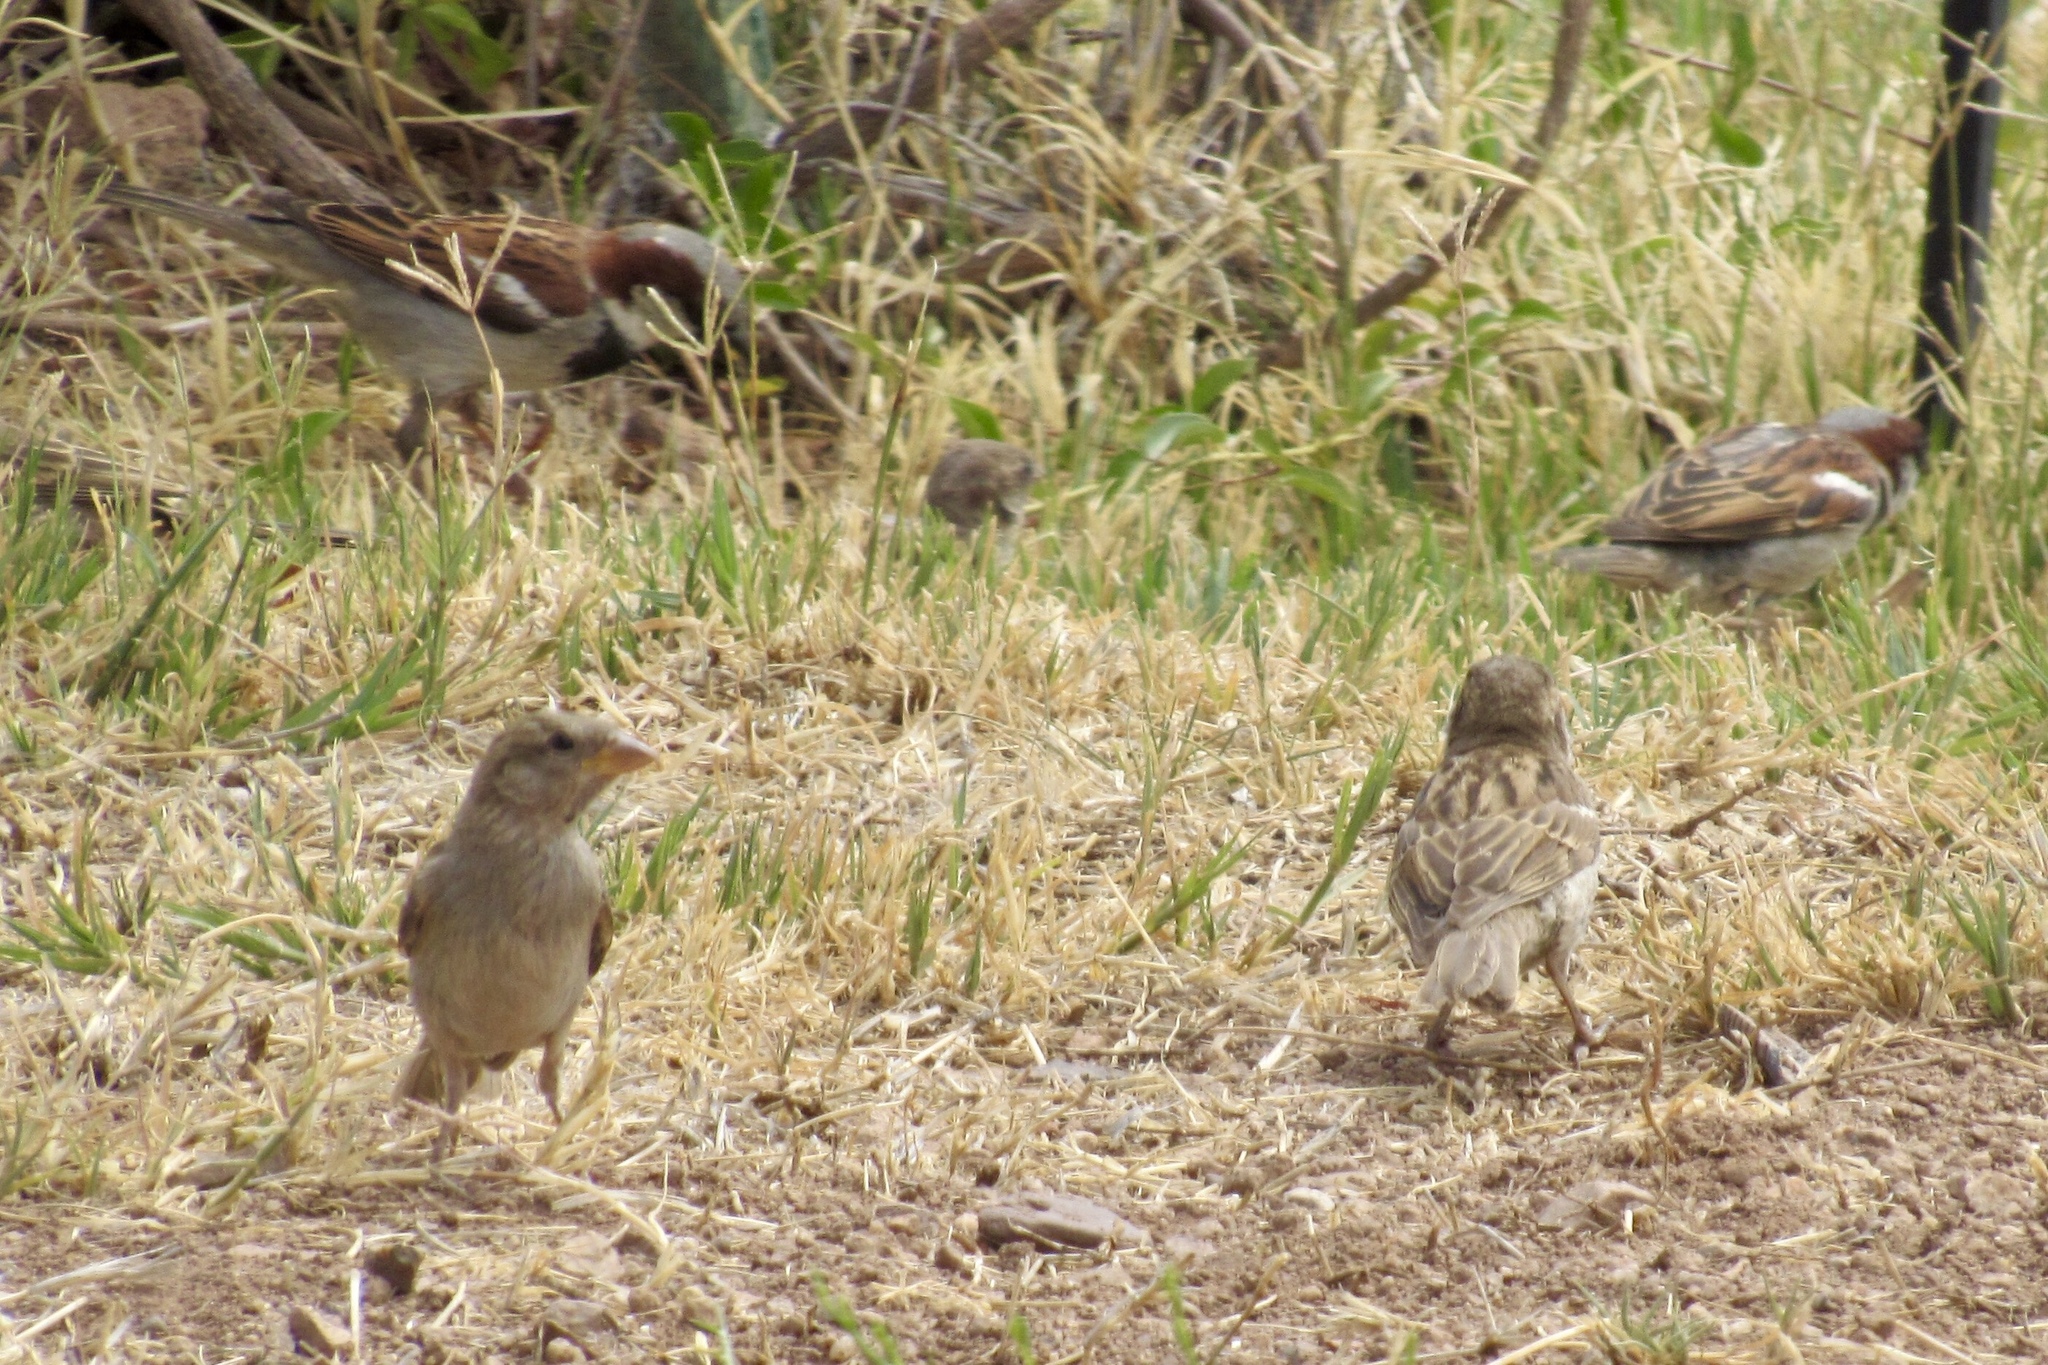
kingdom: Animalia
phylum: Chordata
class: Aves
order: Passeriformes
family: Passeridae
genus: Passer
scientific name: Passer domesticus
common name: House sparrow
